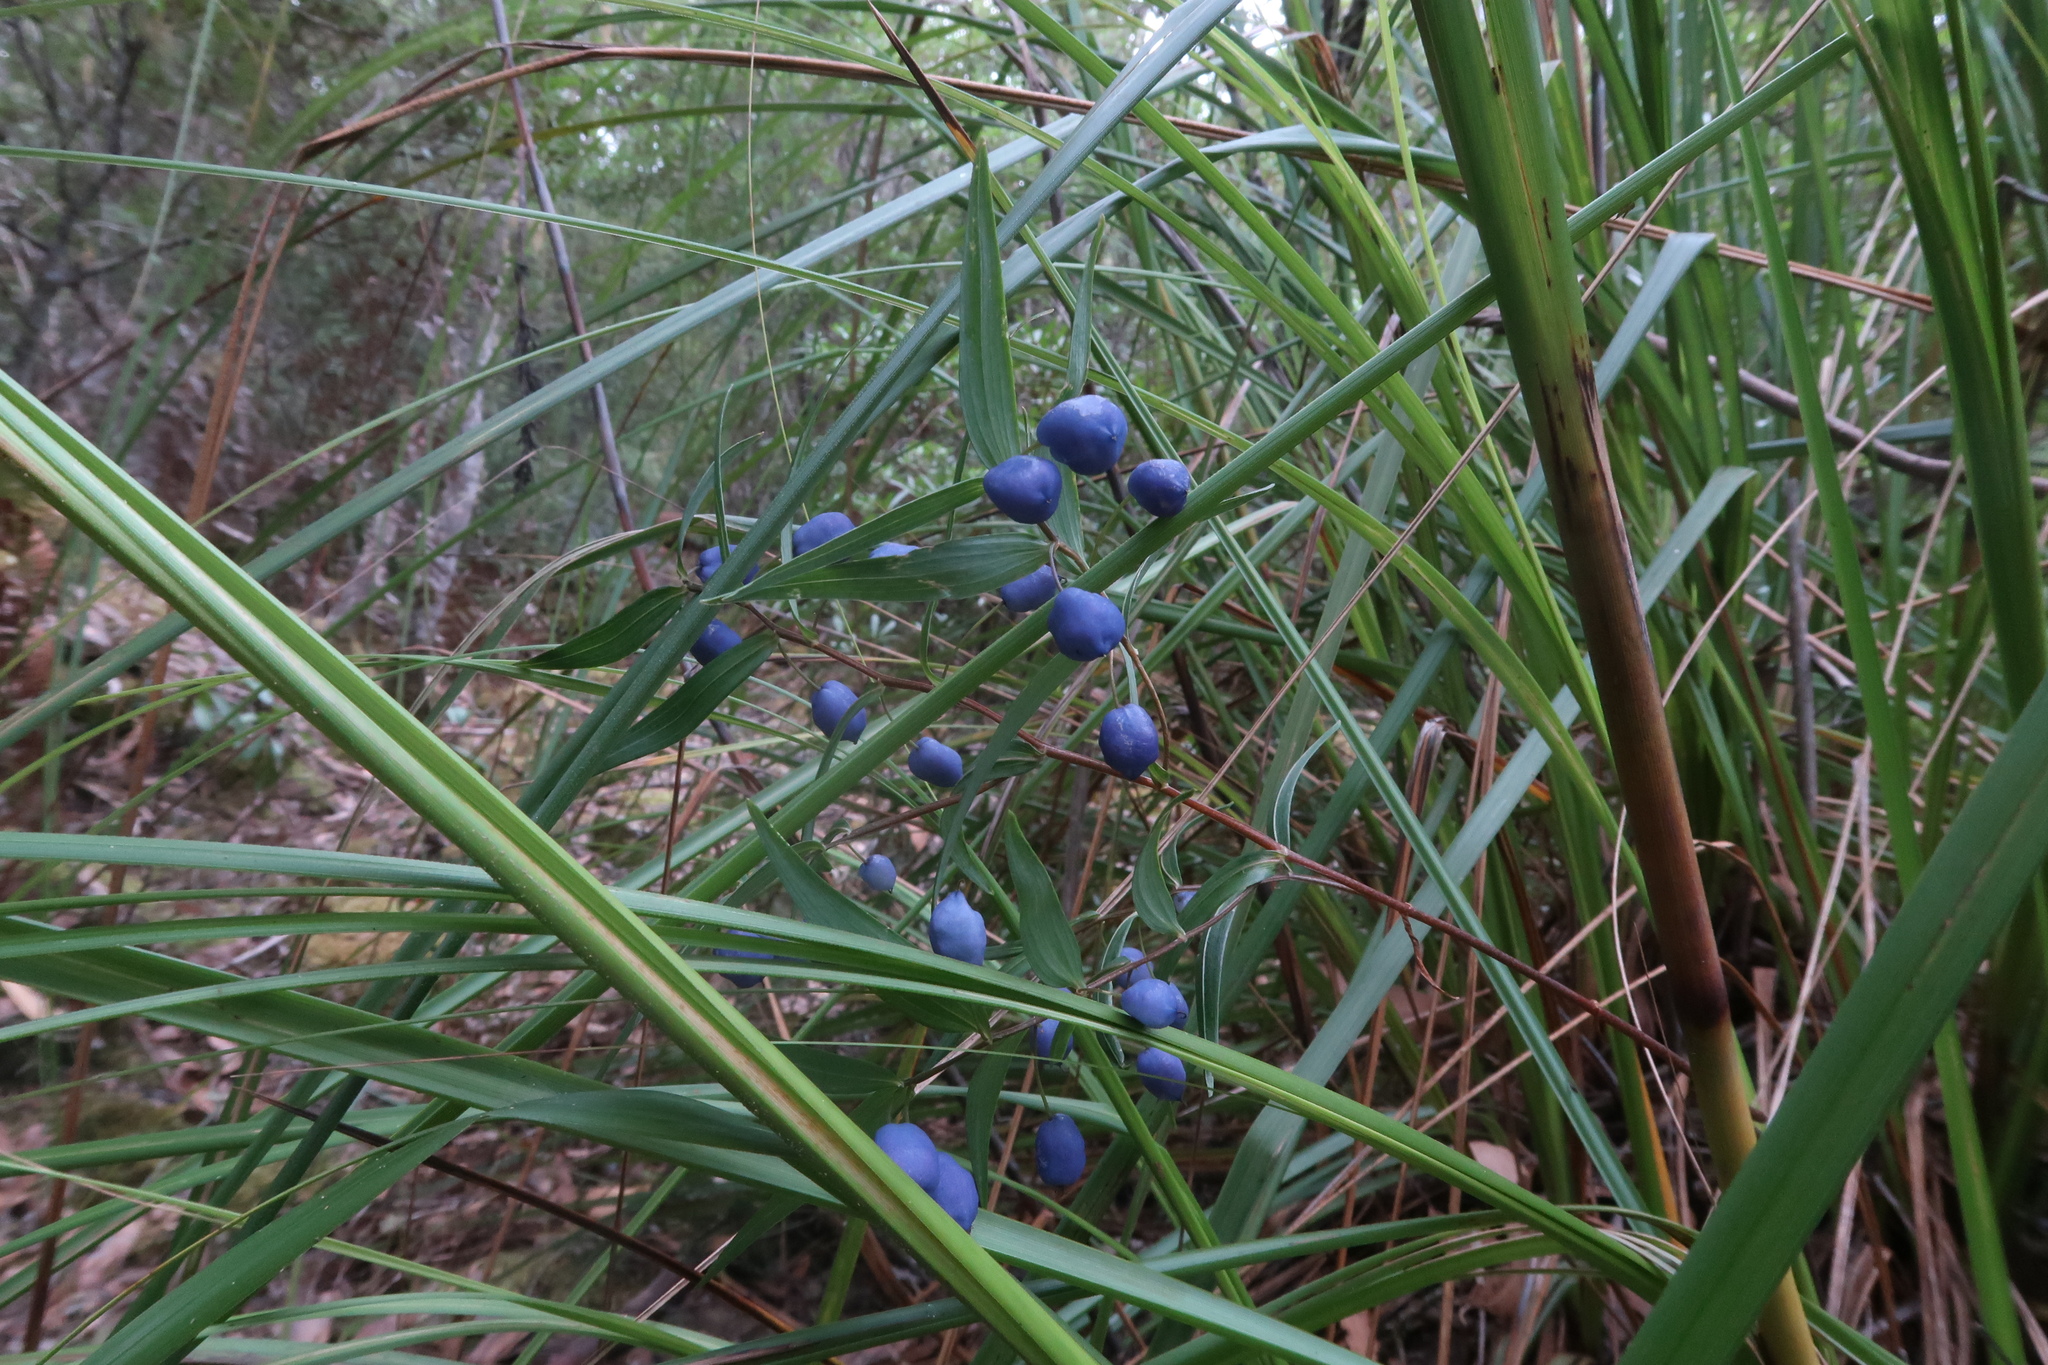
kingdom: Plantae
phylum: Tracheophyta
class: Liliopsida
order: Liliales
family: Alstroemeriaceae
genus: Drymophila
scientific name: Drymophila cyanocarpa
